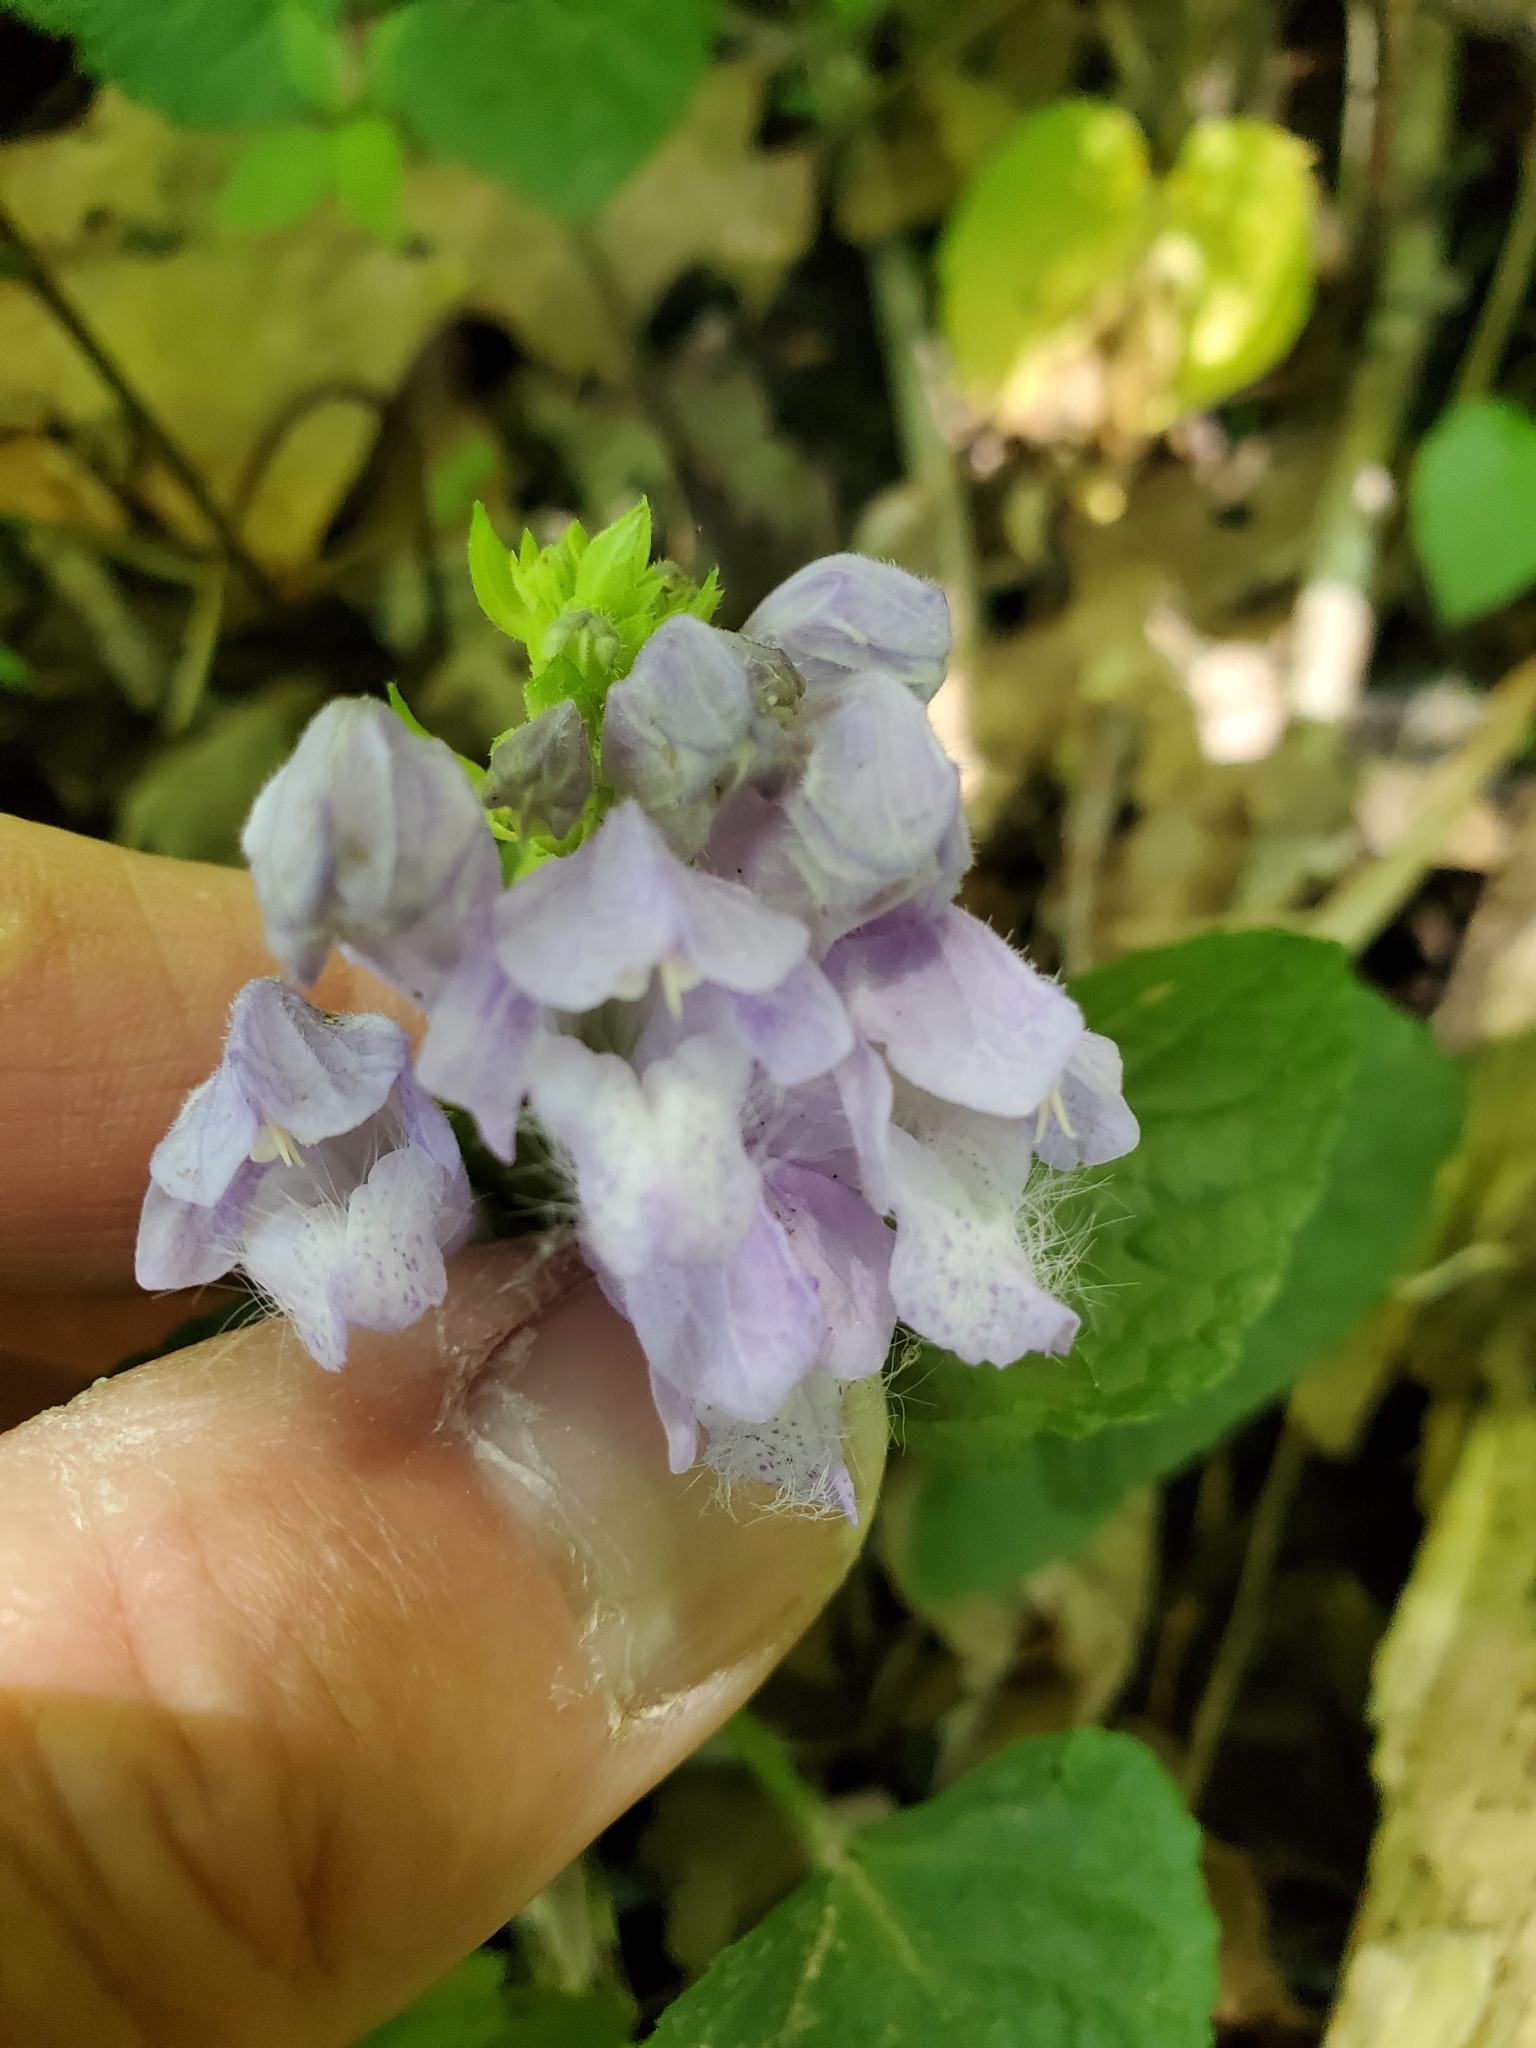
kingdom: Plantae
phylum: Tracheophyta
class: Magnoliopsida
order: Lamiales
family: Lamiaceae
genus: Meehania
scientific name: Meehania cordata
